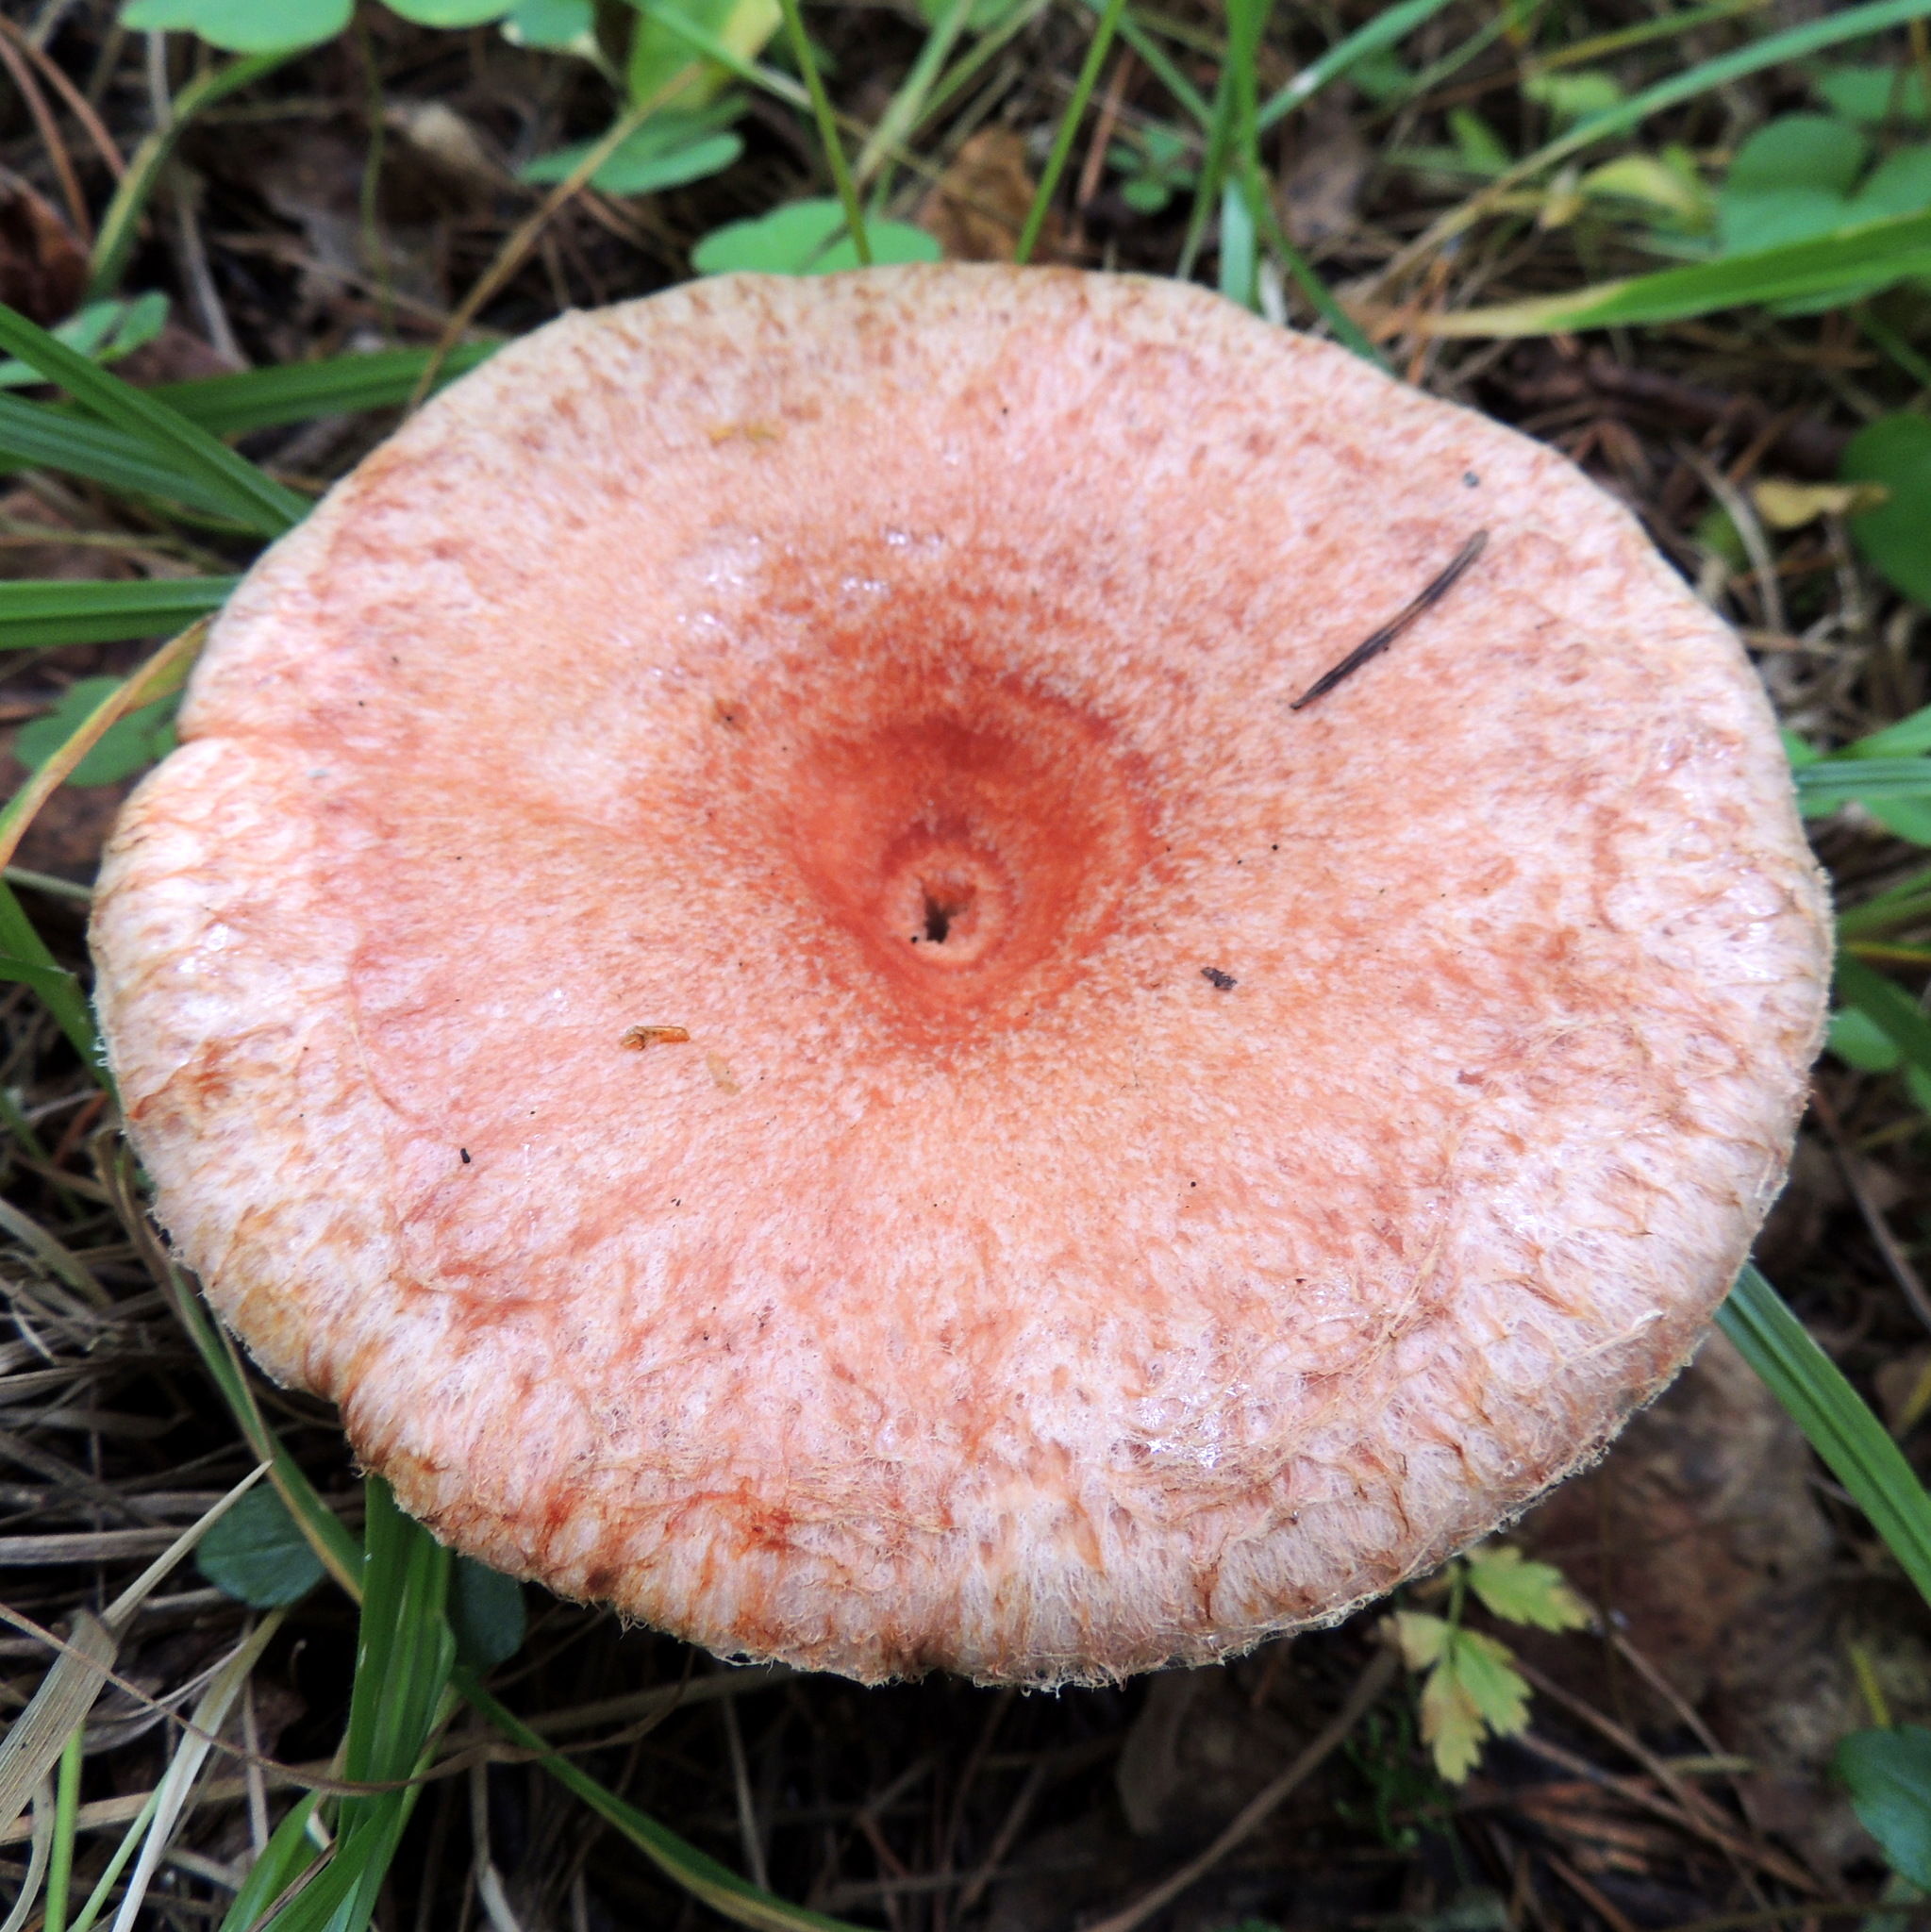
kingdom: Fungi
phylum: Basidiomycota
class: Agaricomycetes
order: Russulales
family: Russulaceae
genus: Lactarius
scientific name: Lactarius torminosus
